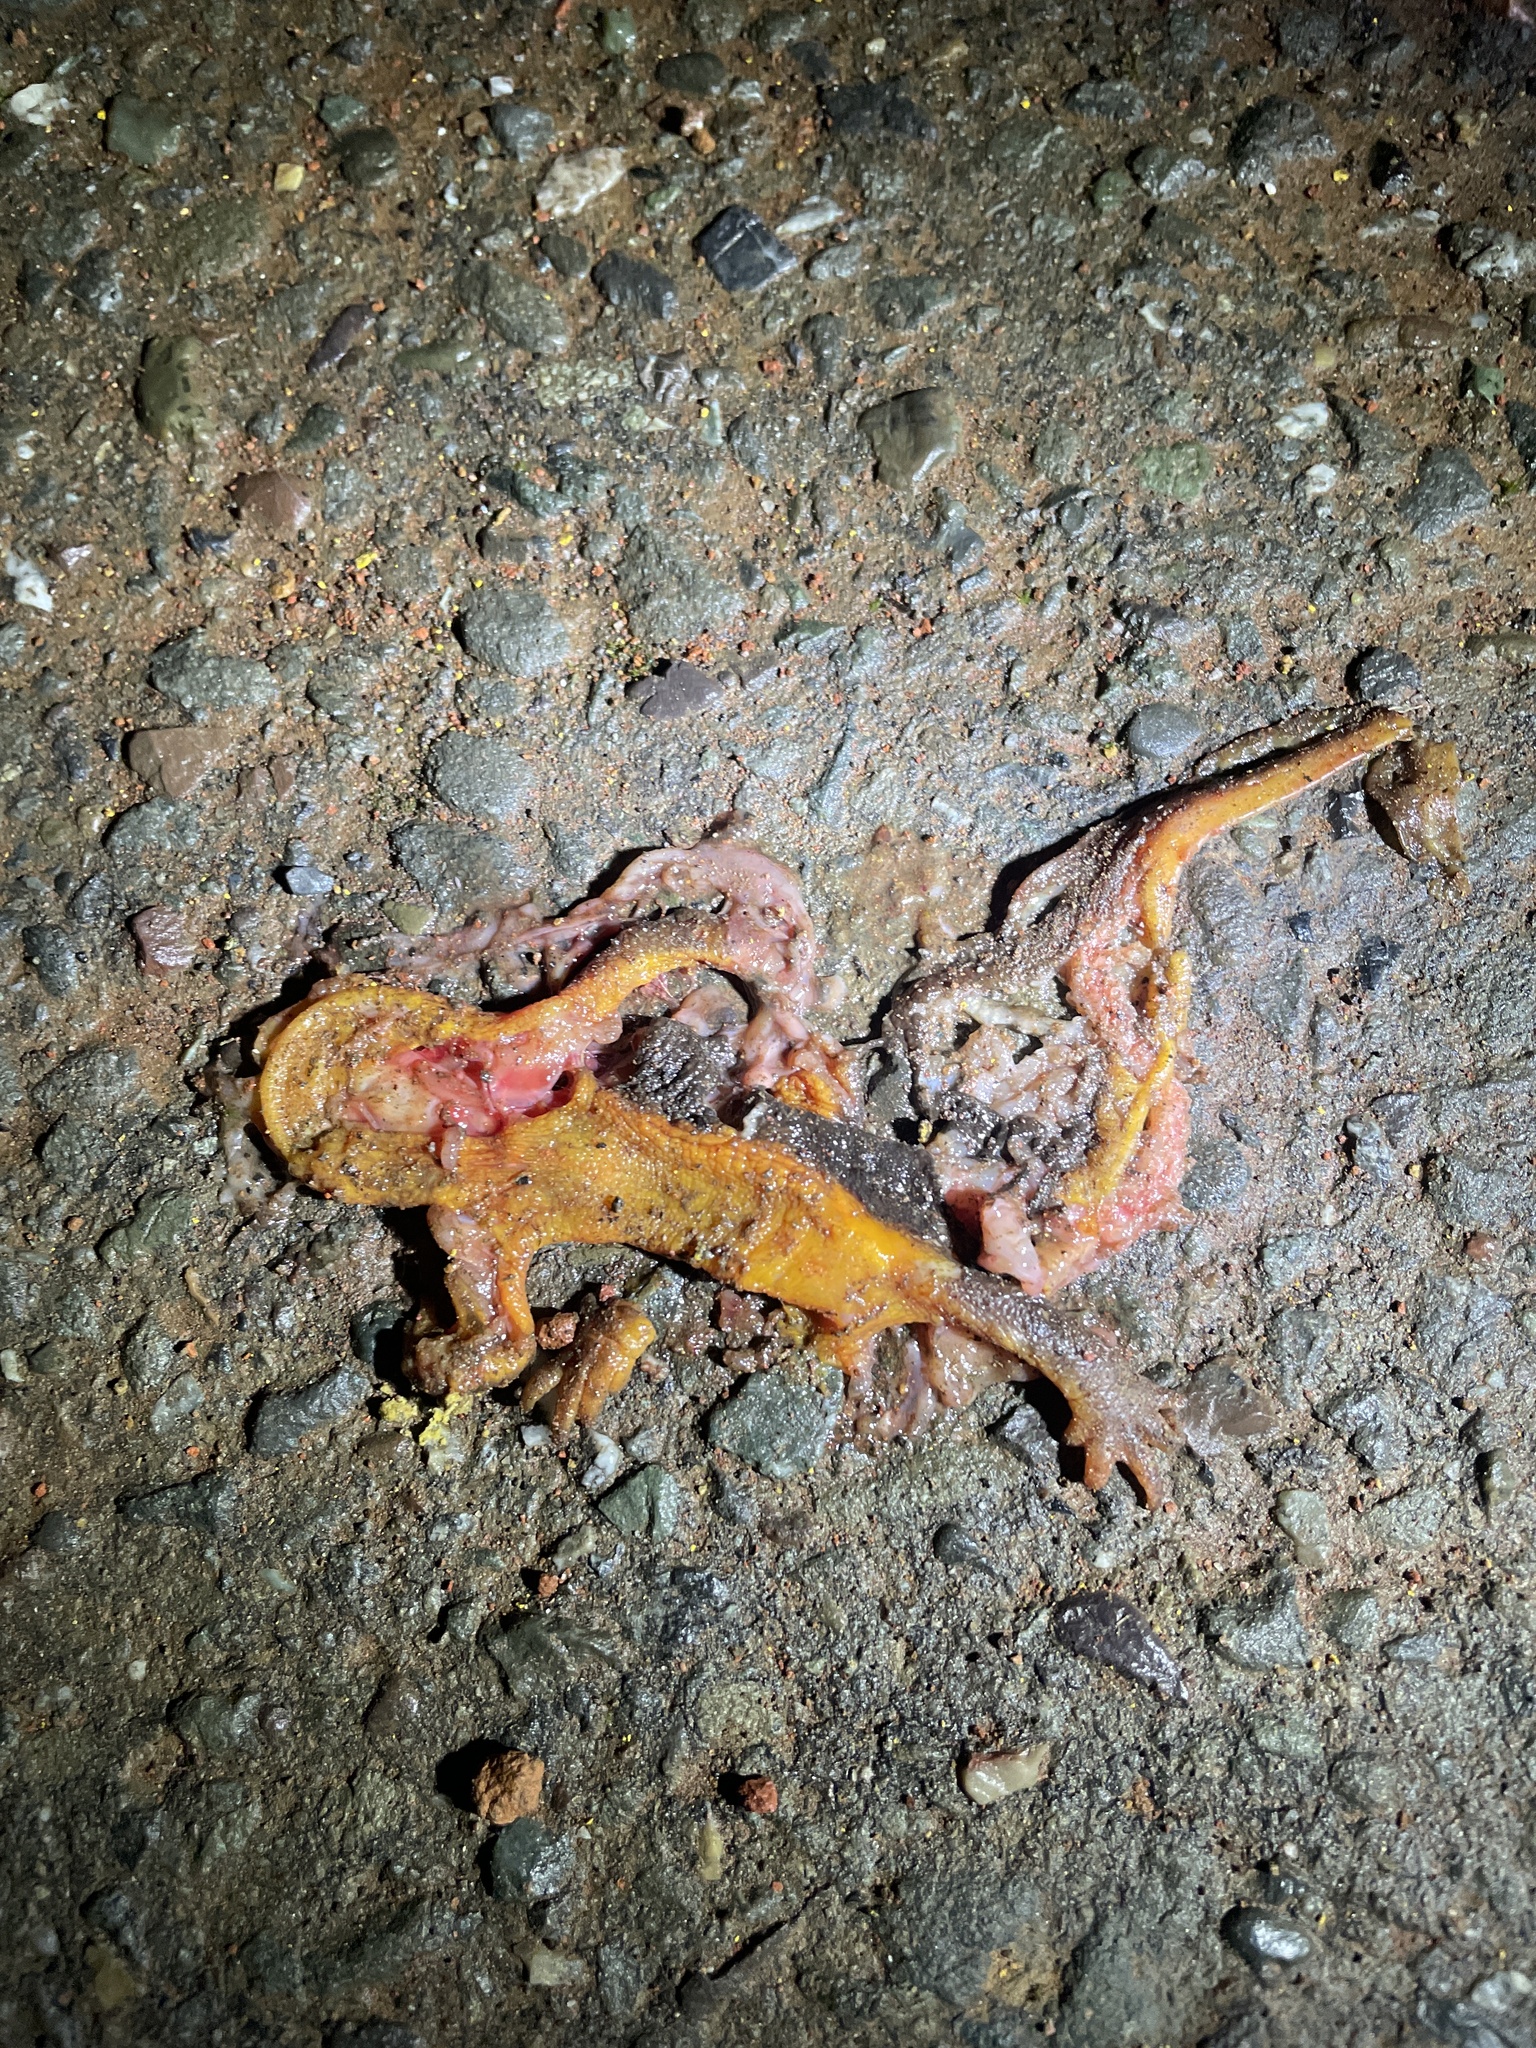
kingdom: Animalia
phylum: Chordata
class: Amphibia
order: Caudata
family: Salamandridae
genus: Taricha
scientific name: Taricha
